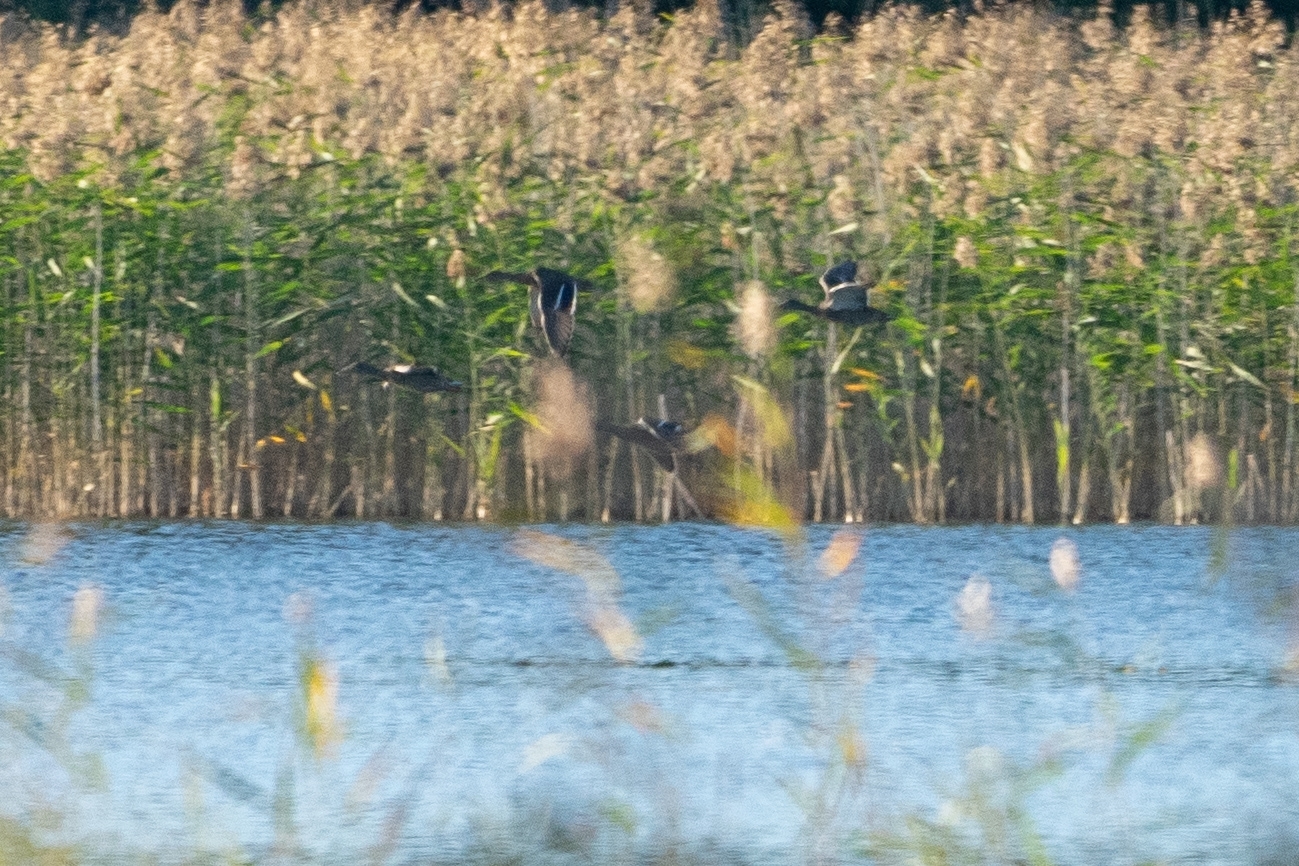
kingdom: Animalia
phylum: Chordata
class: Aves
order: Anseriformes
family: Anatidae
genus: Anas
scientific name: Anas platyrhynchos
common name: Mallard
